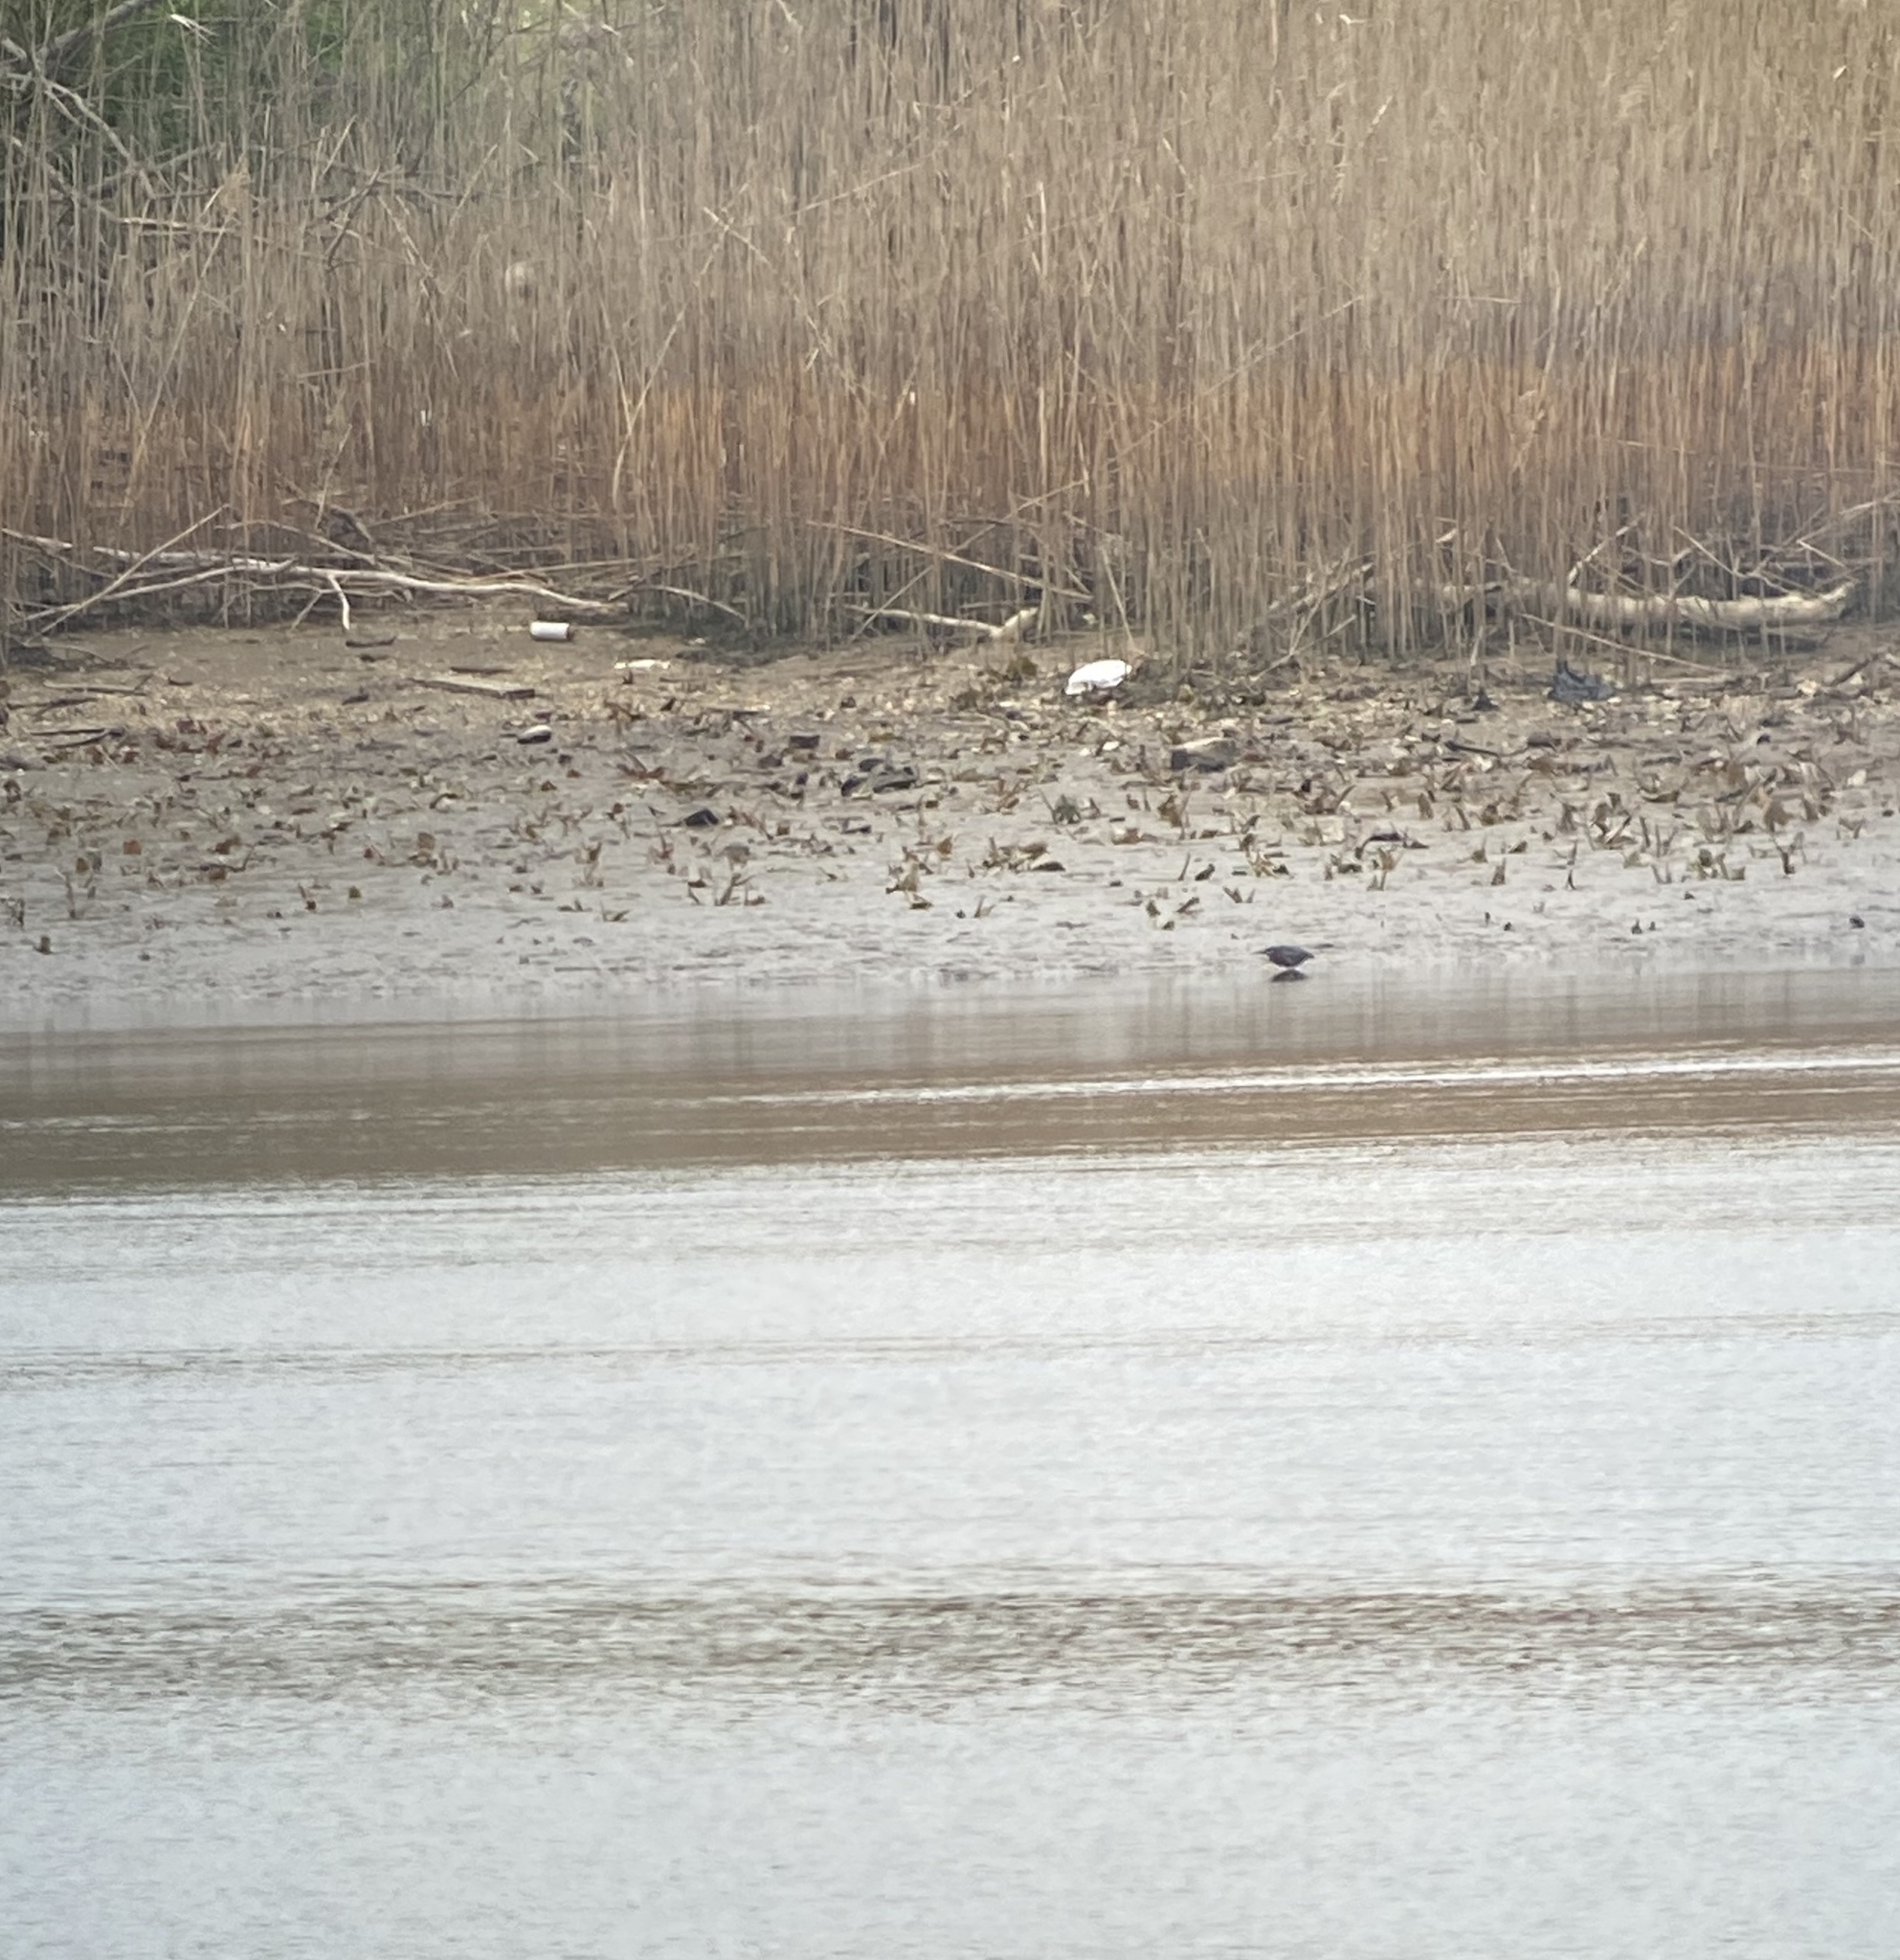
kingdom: Animalia
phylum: Chordata
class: Aves
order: Pelecaniformes
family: Ardeidae
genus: Butorides
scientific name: Butorides virescens
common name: Green heron
